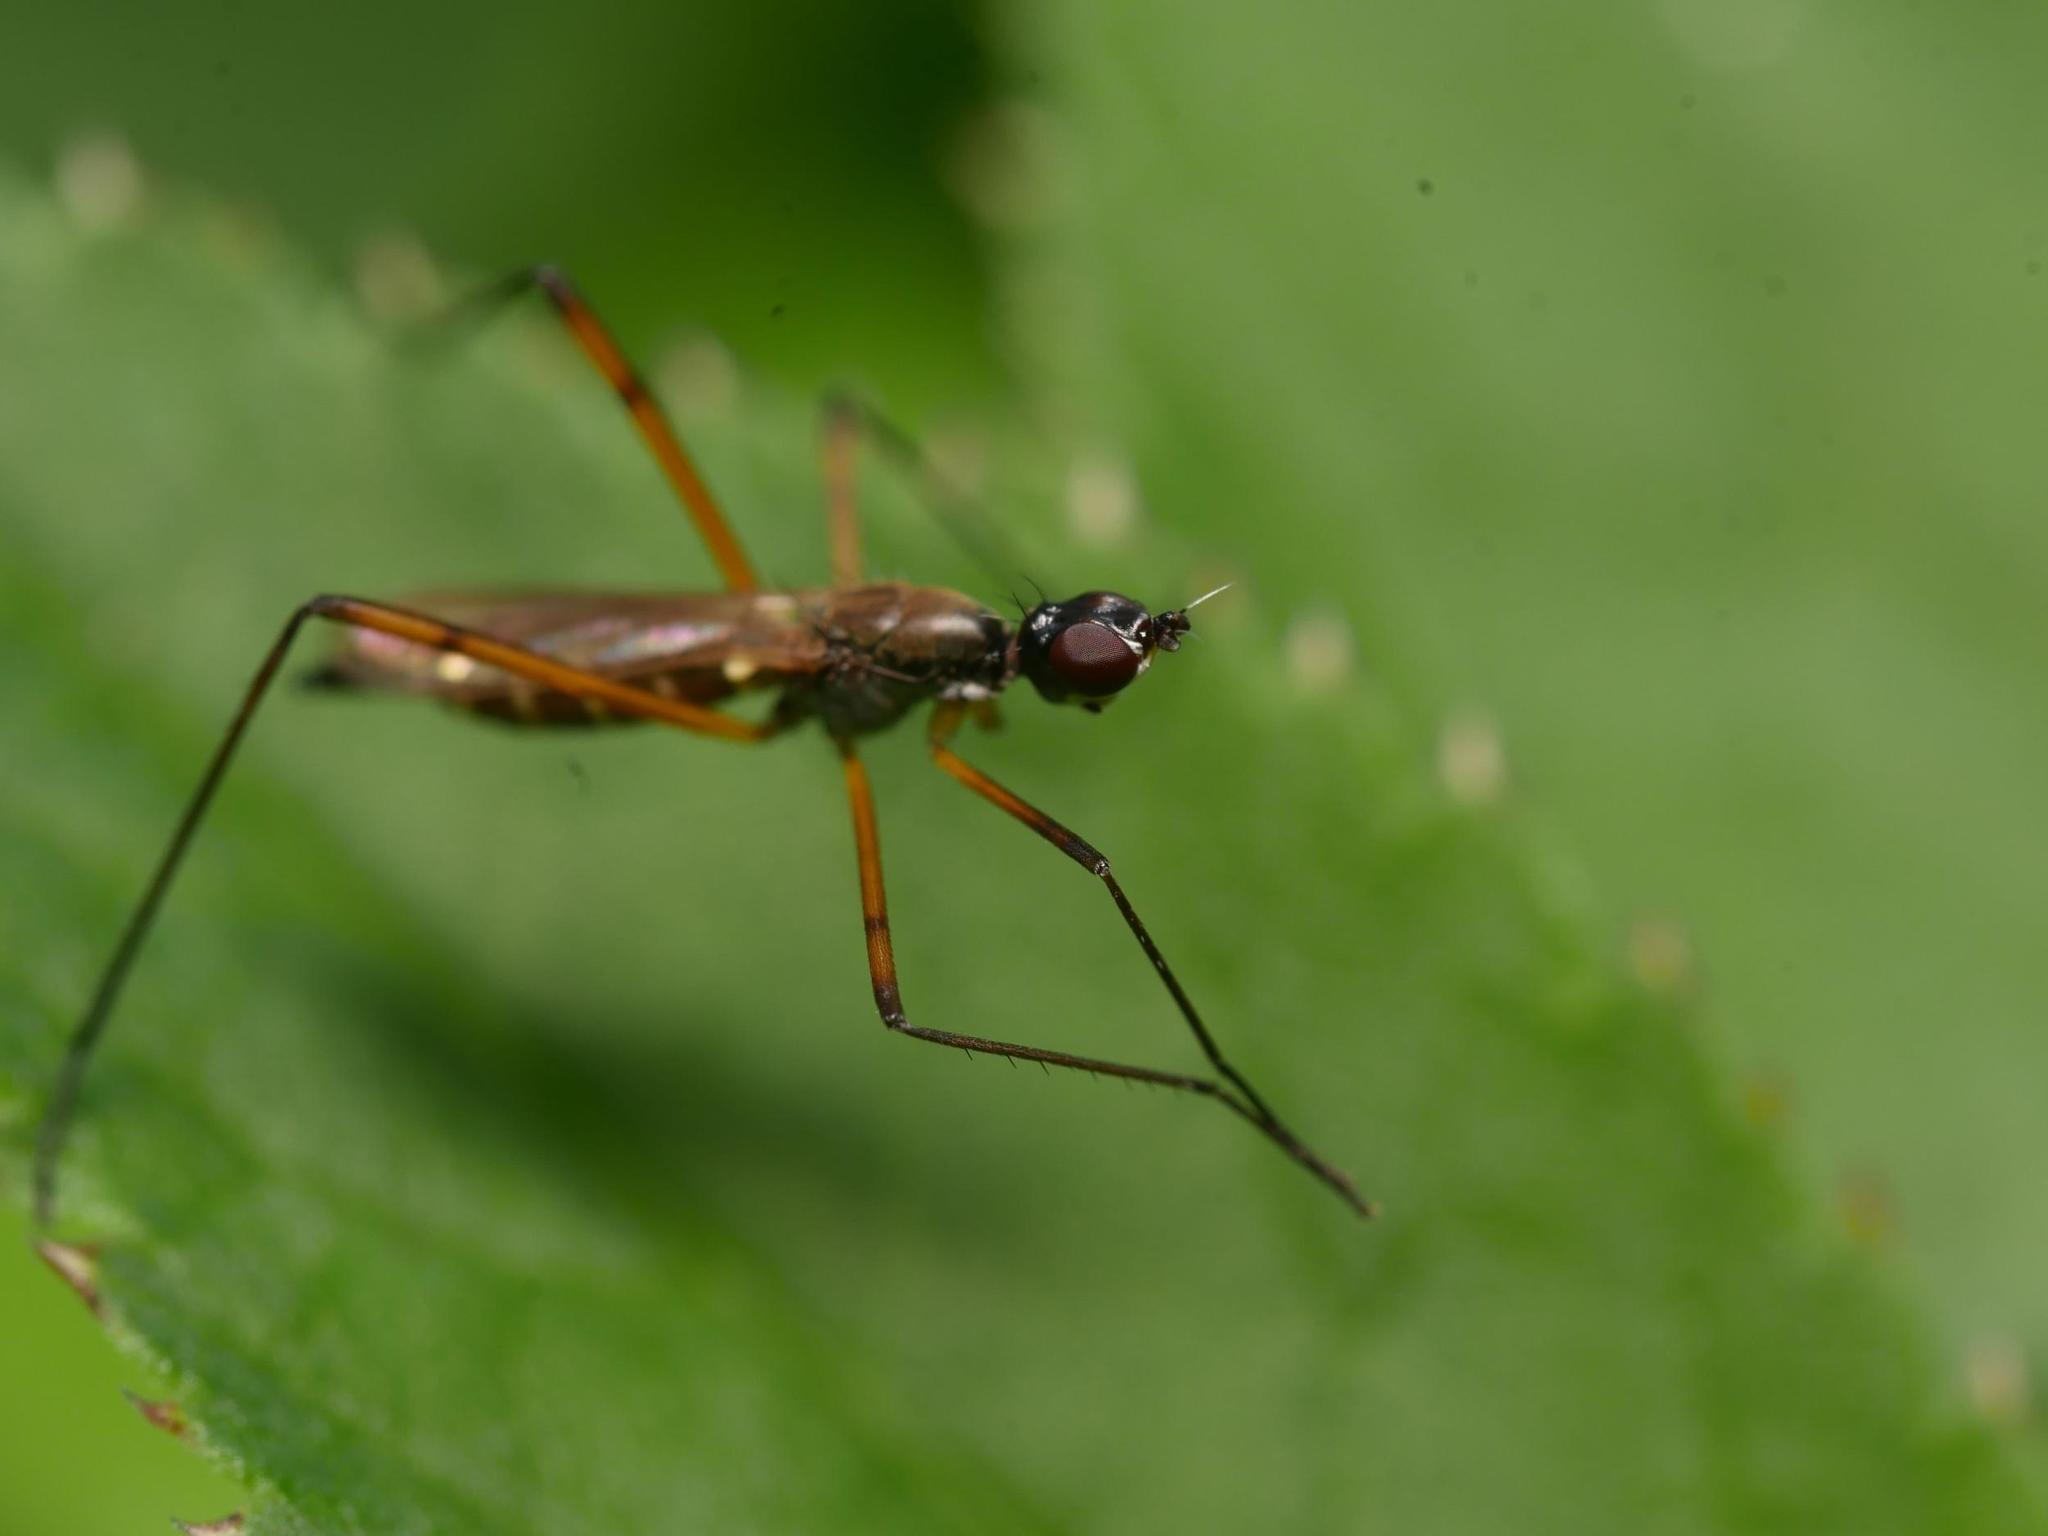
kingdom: Animalia
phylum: Arthropoda
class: Insecta
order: Diptera
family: Micropezidae
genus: Micropeza
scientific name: Micropeza corrigiolata
